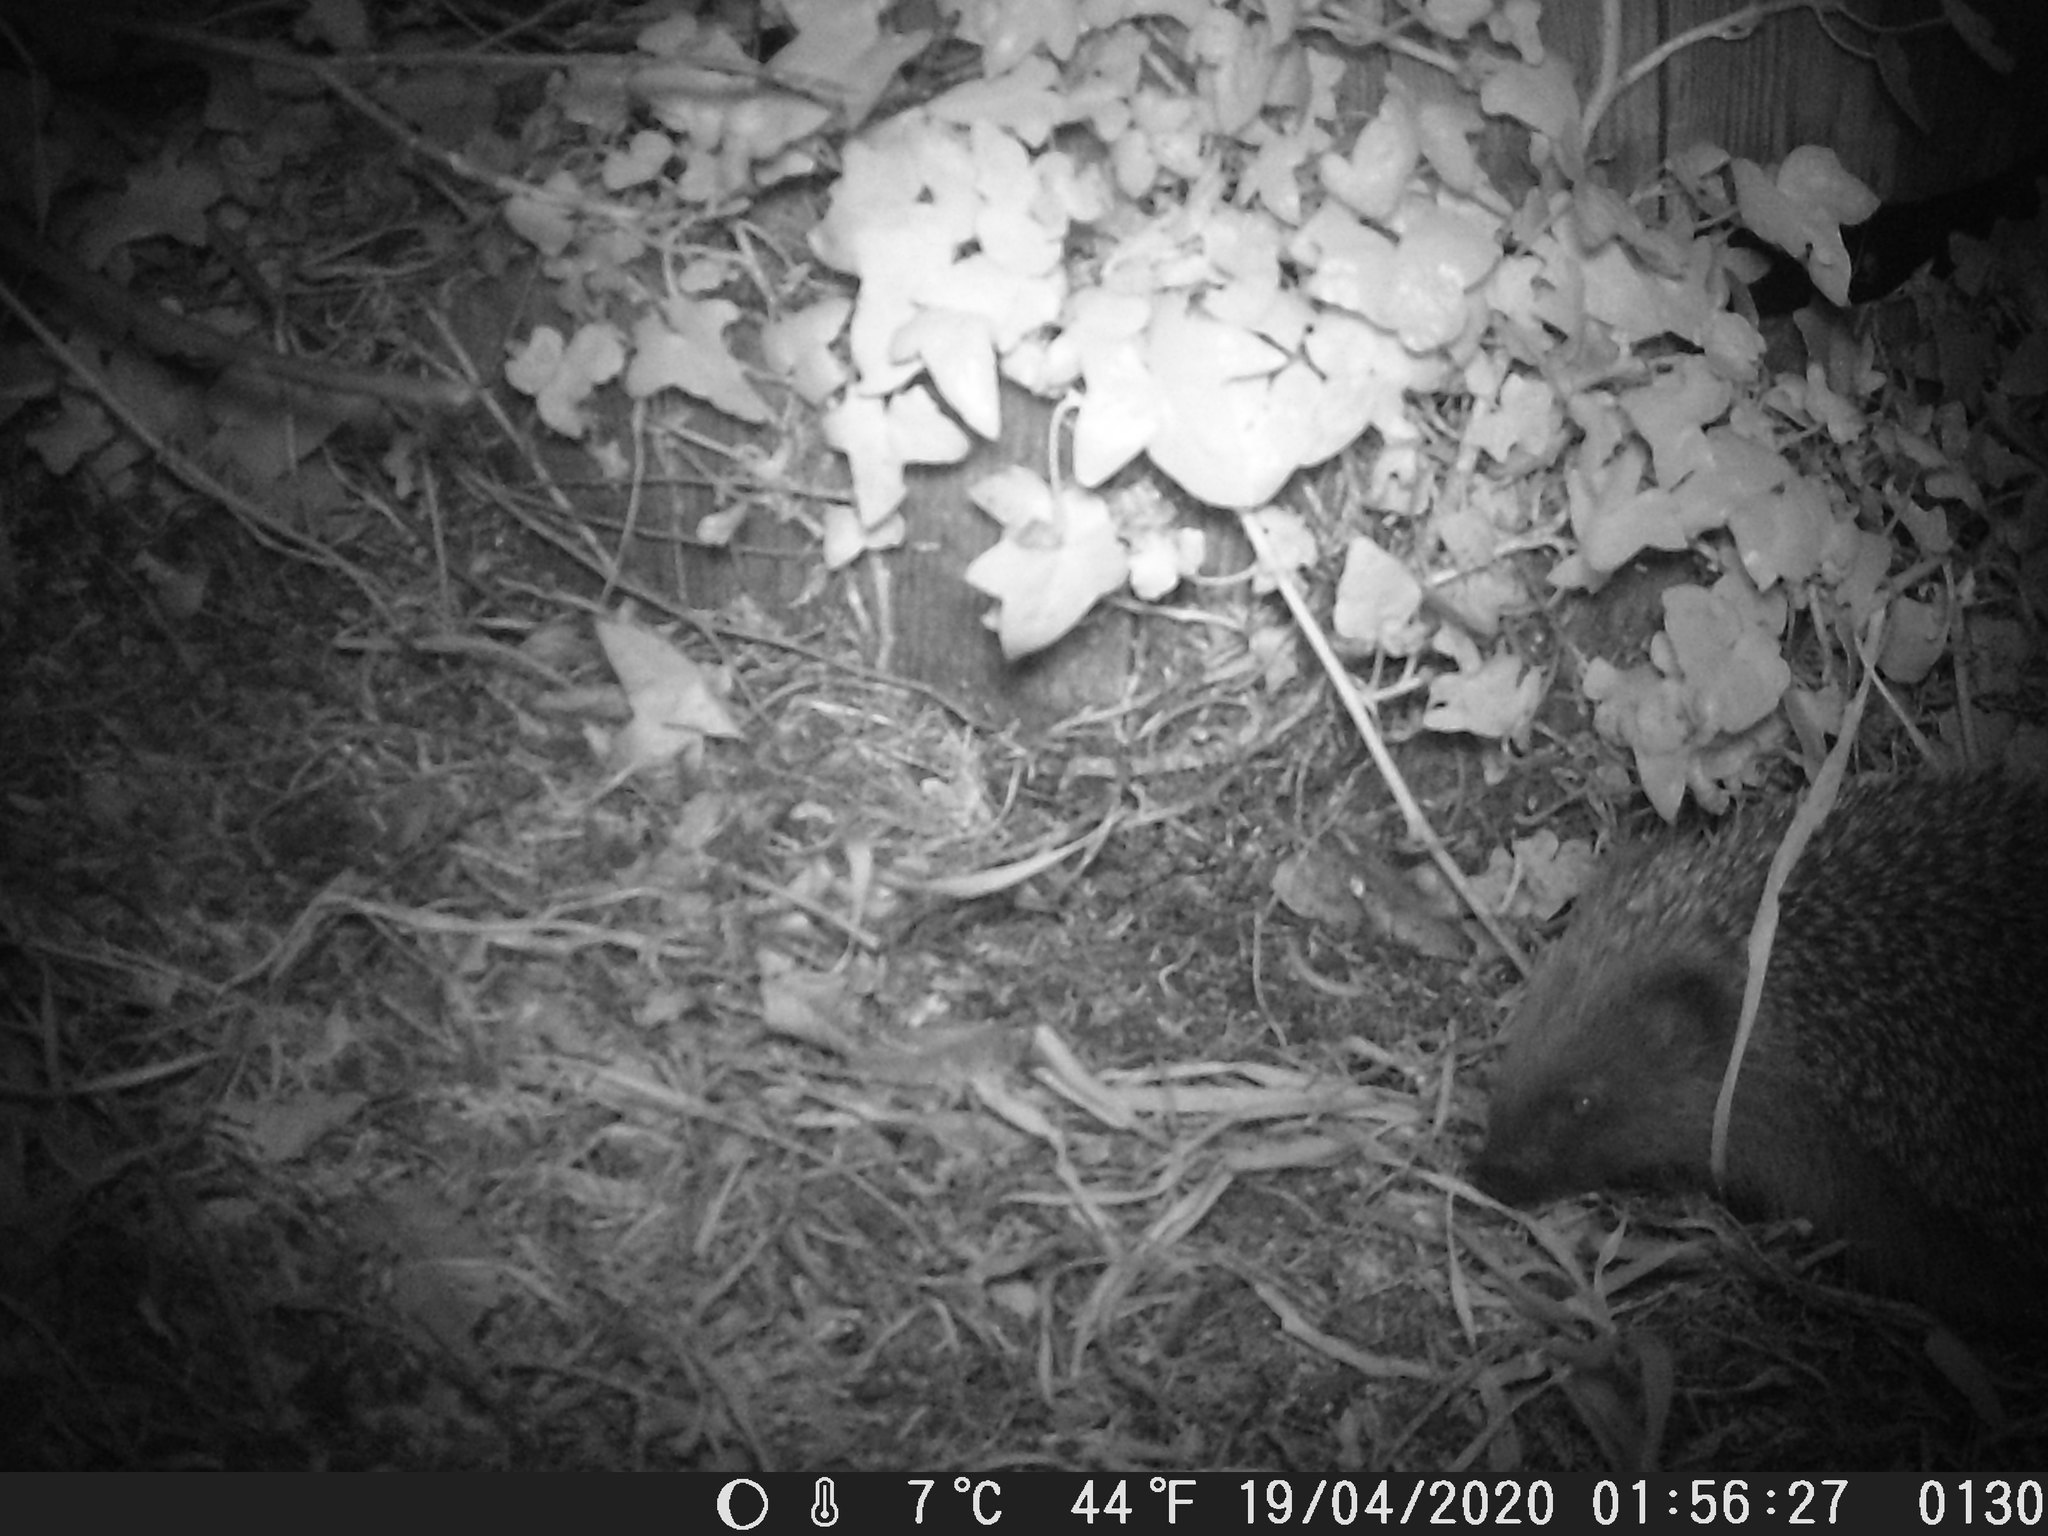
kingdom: Animalia
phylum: Chordata
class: Mammalia
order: Erinaceomorpha
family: Erinaceidae
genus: Erinaceus
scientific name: Erinaceus europaeus
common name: West european hedgehog
